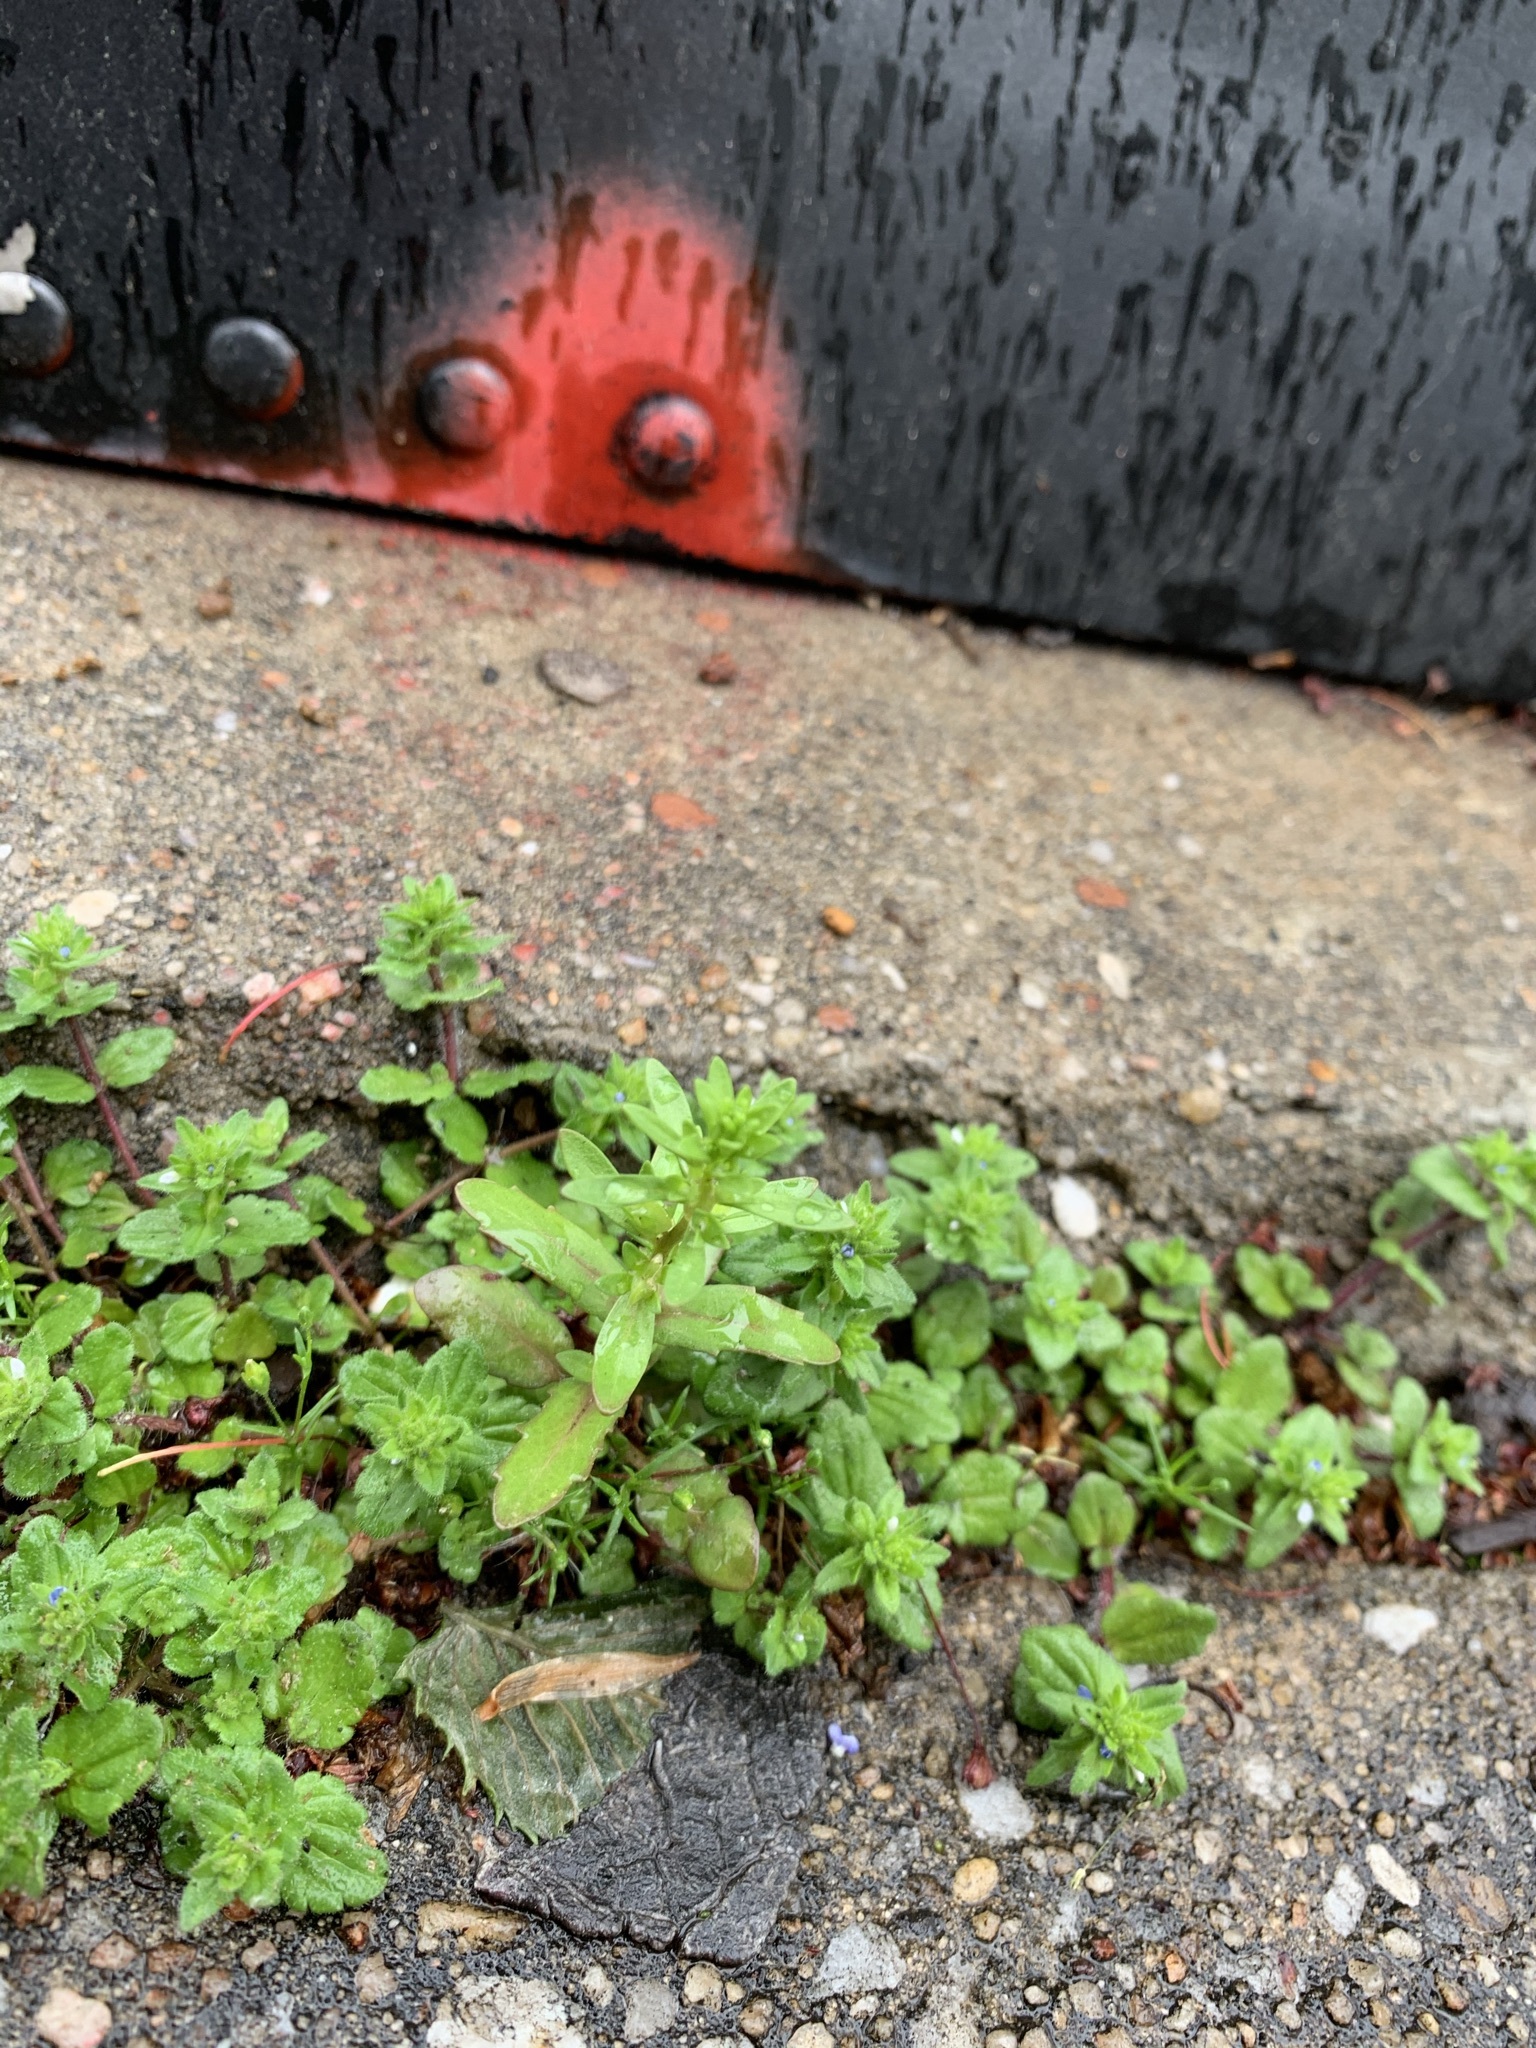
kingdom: Plantae
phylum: Tracheophyta
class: Magnoliopsida
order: Lamiales
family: Plantaginaceae
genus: Veronica
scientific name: Veronica peregrina
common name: Neckweed
